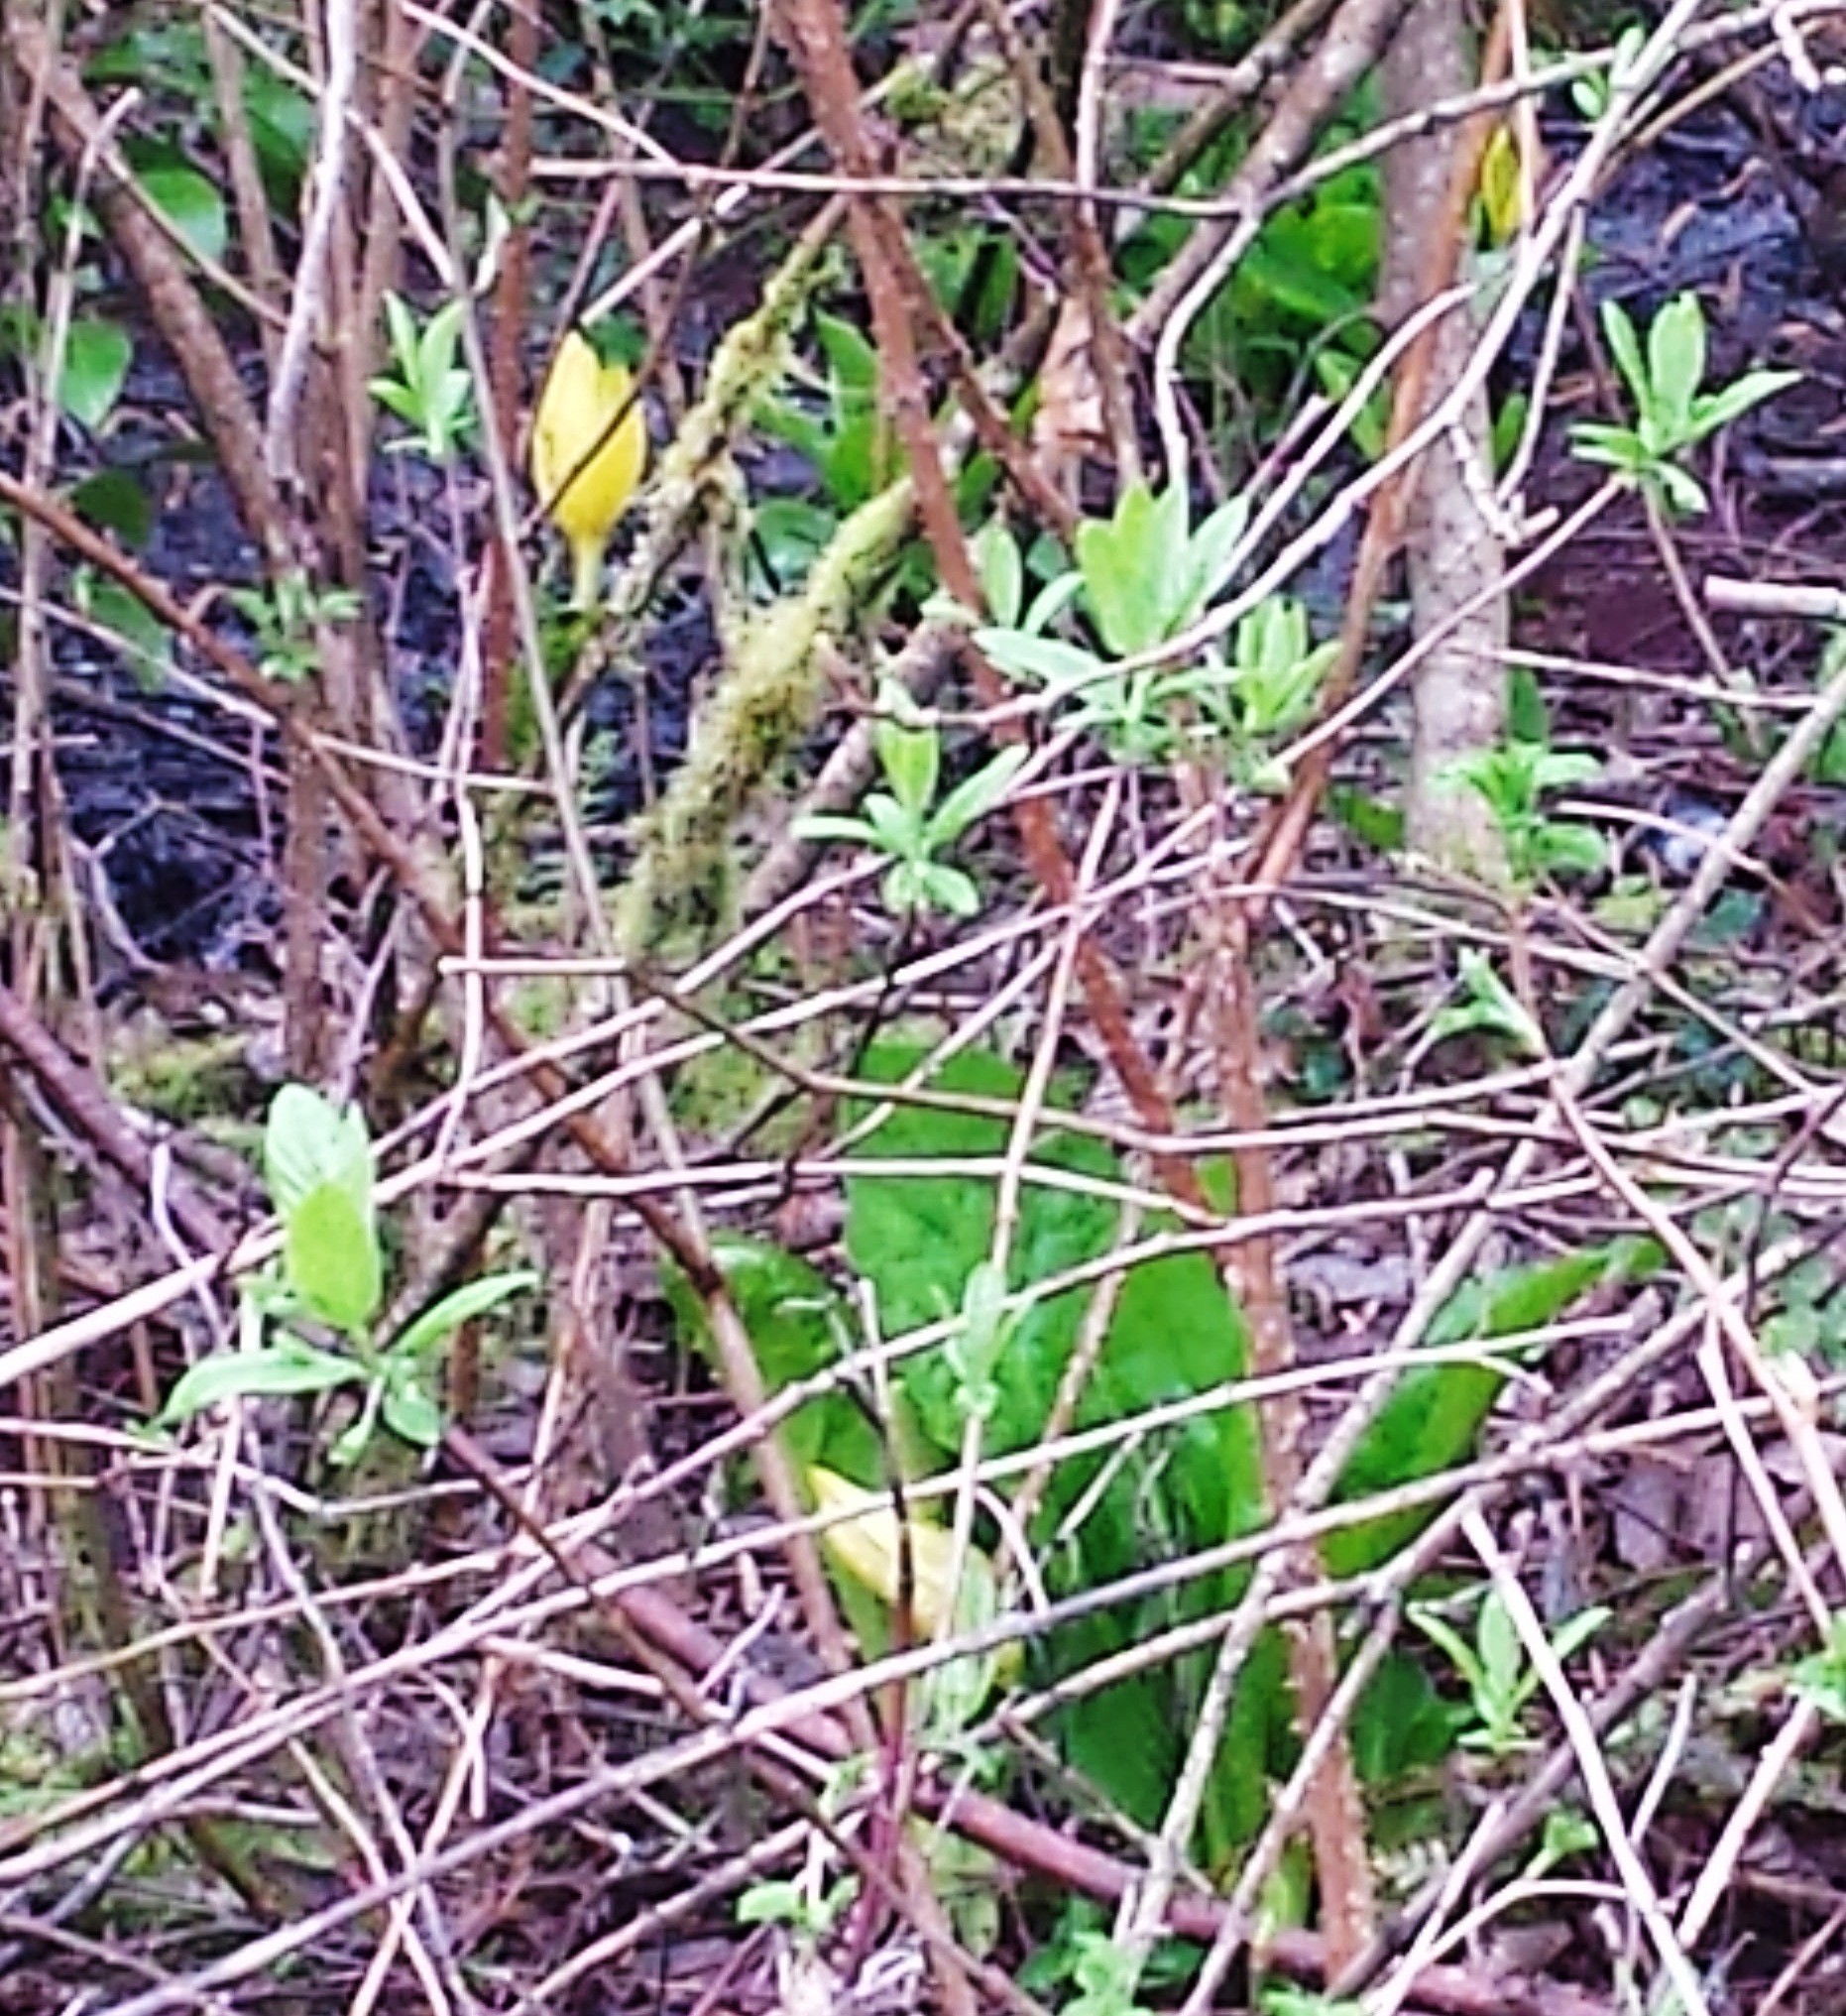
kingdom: Plantae
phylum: Tracheophyta
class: Liliopsida
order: Alismatales
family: Araceae
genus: Lysichiton
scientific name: Lysichiton americanus
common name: American skunk cabbage
